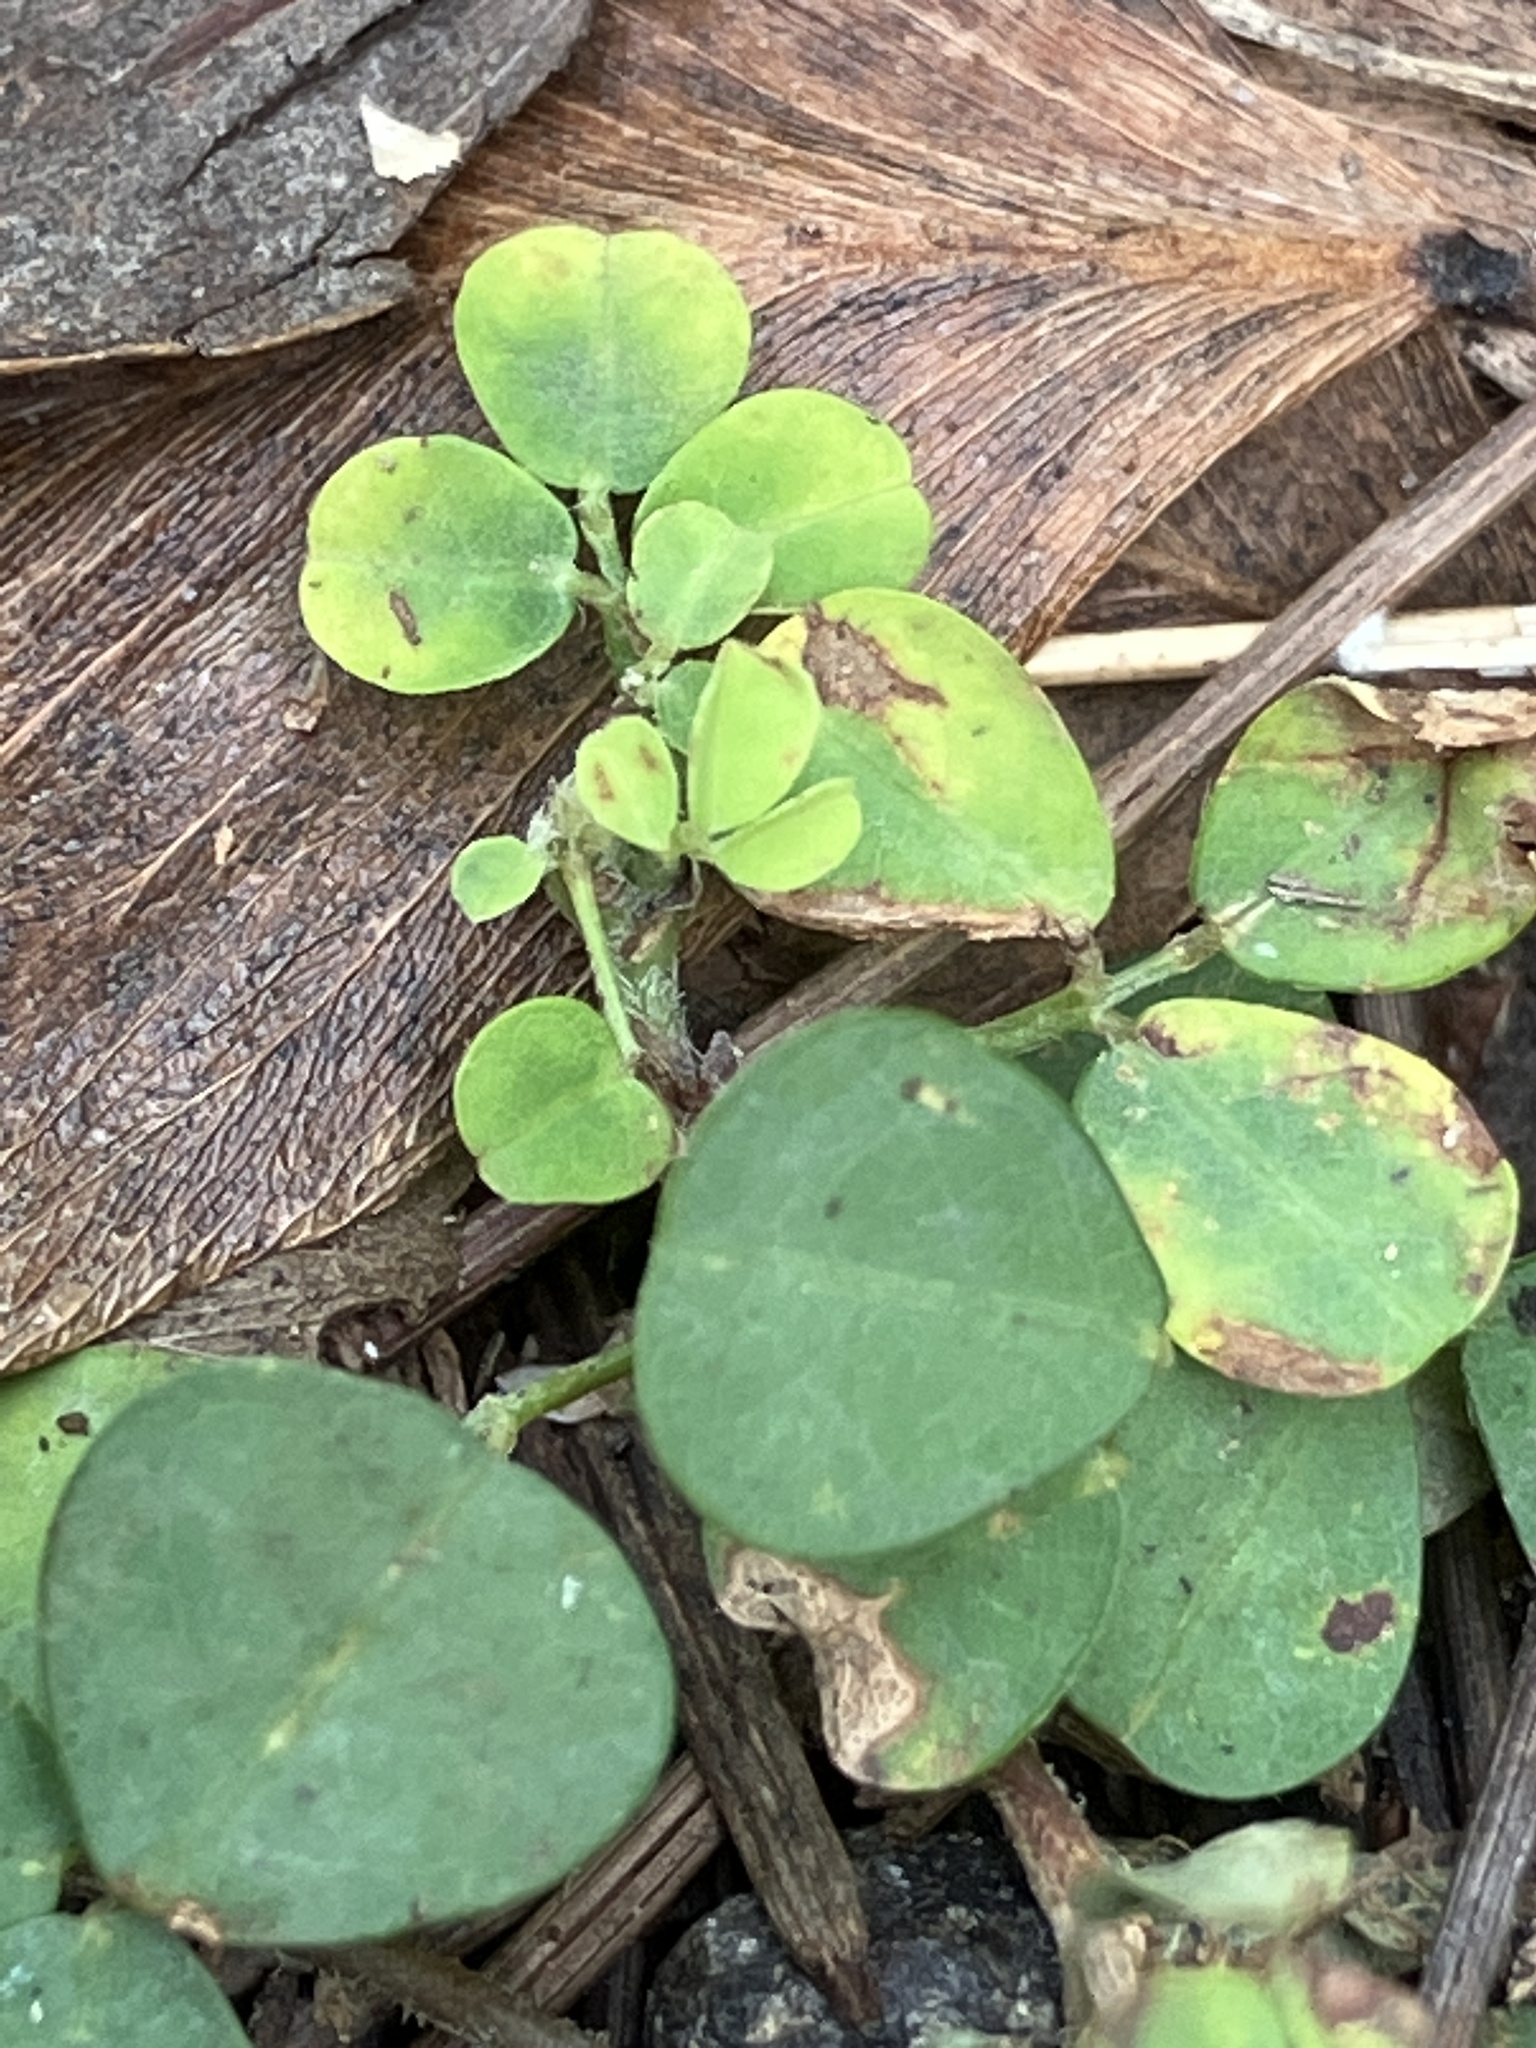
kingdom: Plantae
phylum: Tracheophyta
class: Magnoliopsida
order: Fabales
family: Fabaceae
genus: Grona
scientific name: Grona triflora
